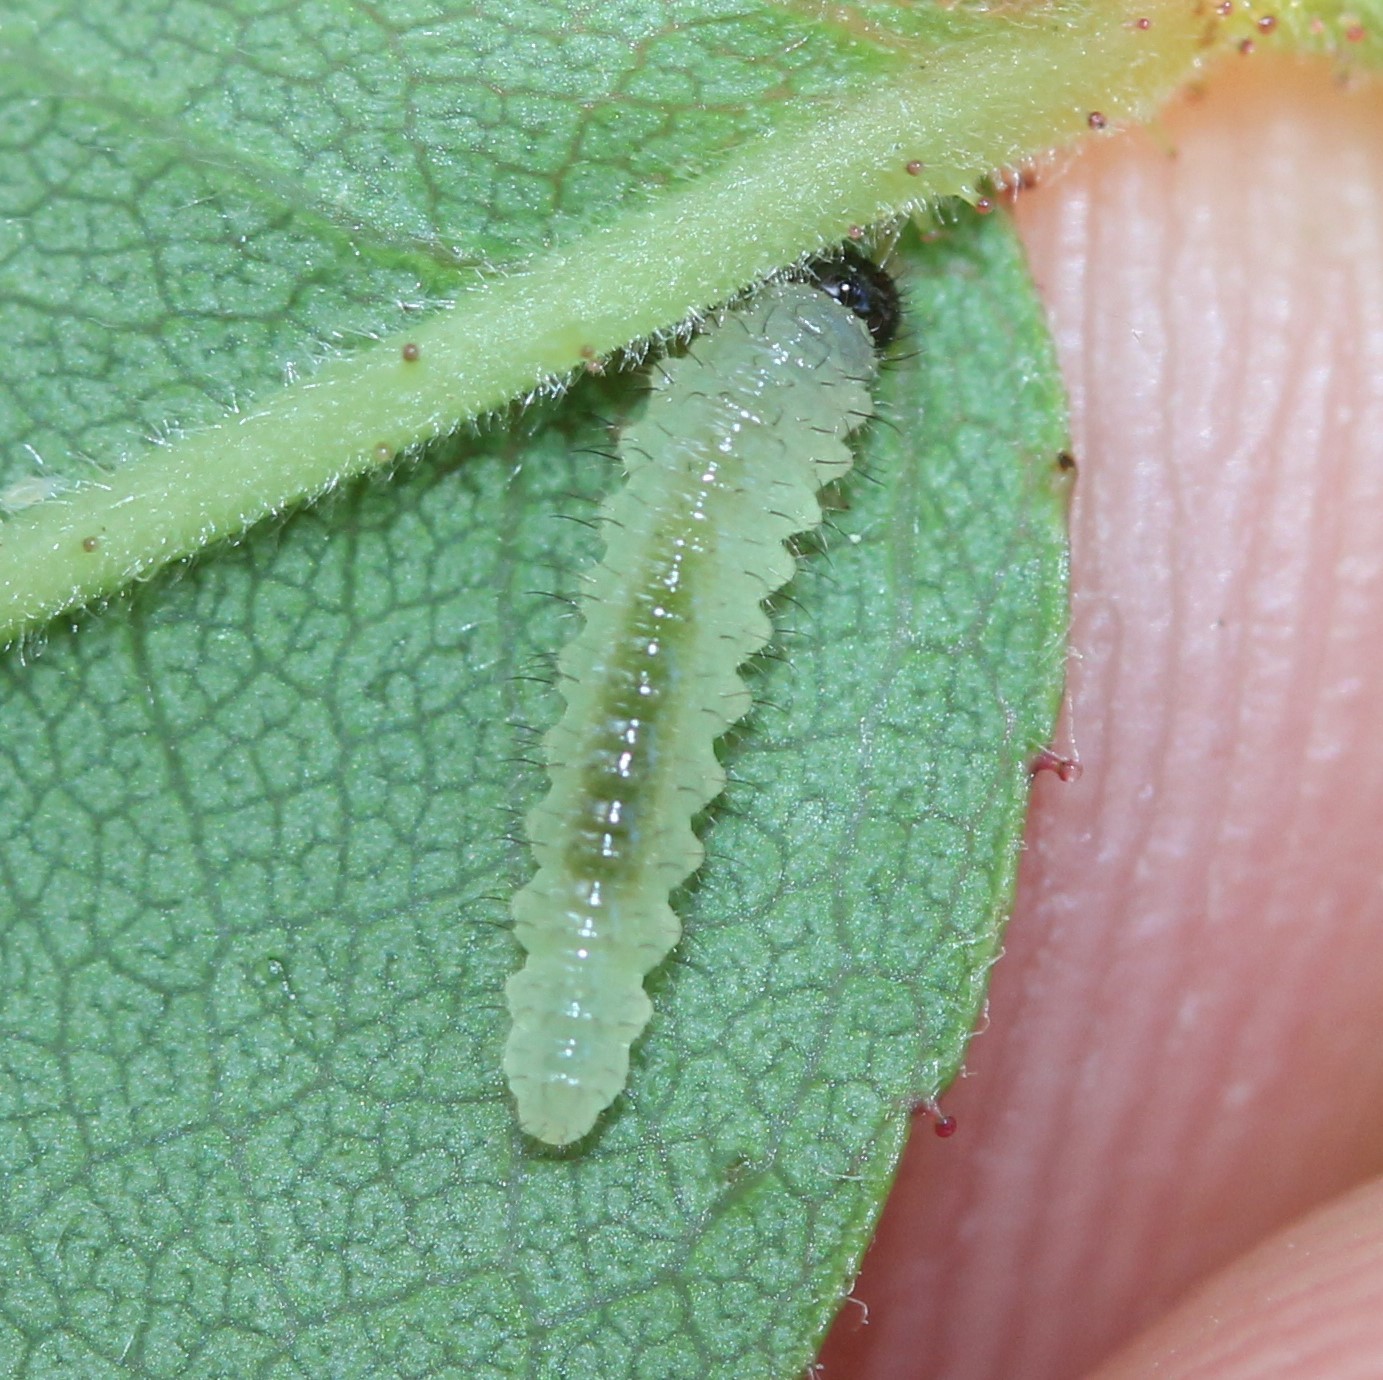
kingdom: Animalia
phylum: Arthropoda
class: Insecta
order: Hymenoptera
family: Tenthredinidae
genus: Cladius
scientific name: Cladius pectinicornis
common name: Sawfly
